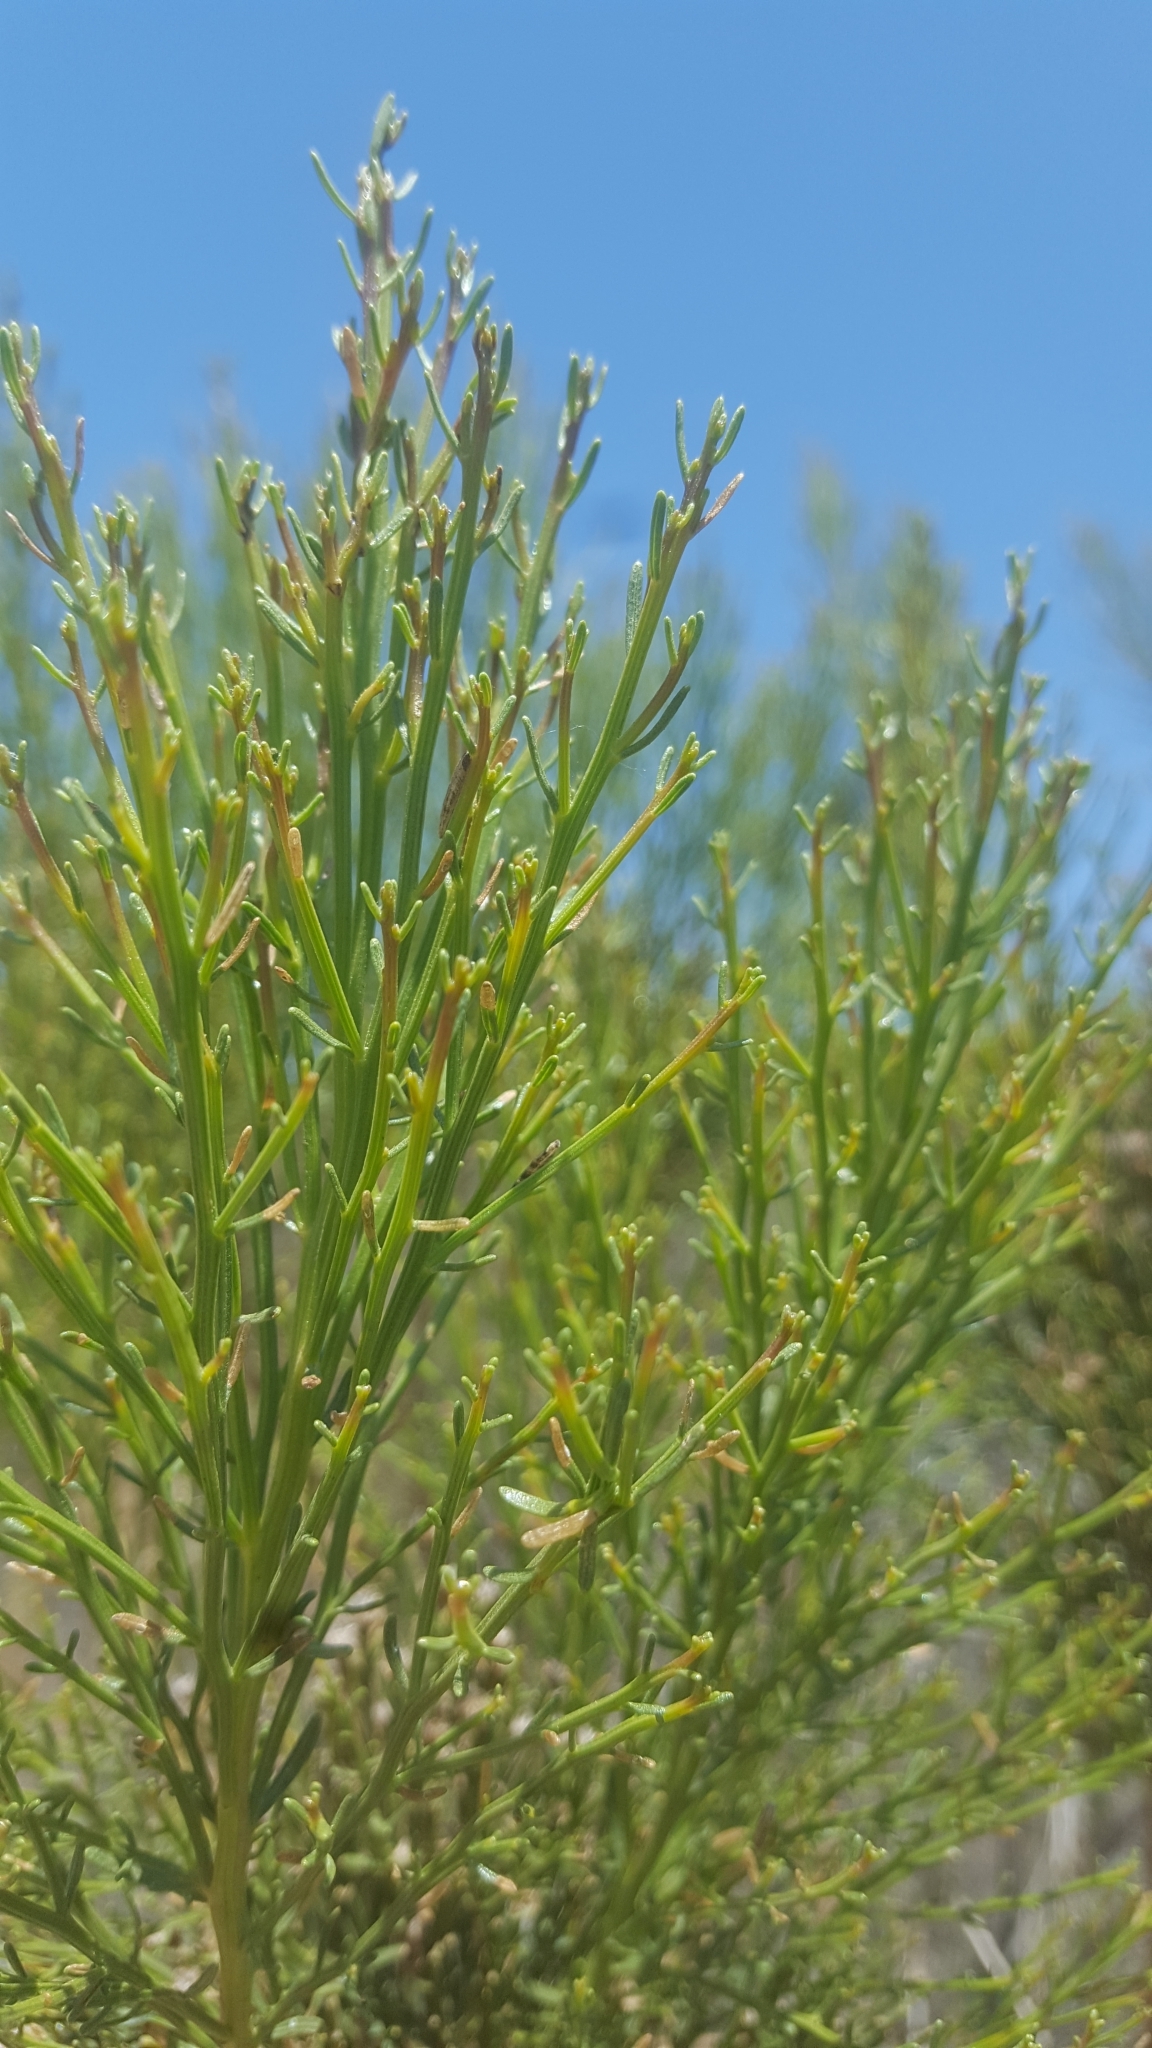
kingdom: Plantae
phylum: Tracheophyta
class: Magnoliopsida
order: Asterales
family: Asteraceae
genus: Baccharis
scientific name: Baccharis sarothroides
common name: Desert-broom
